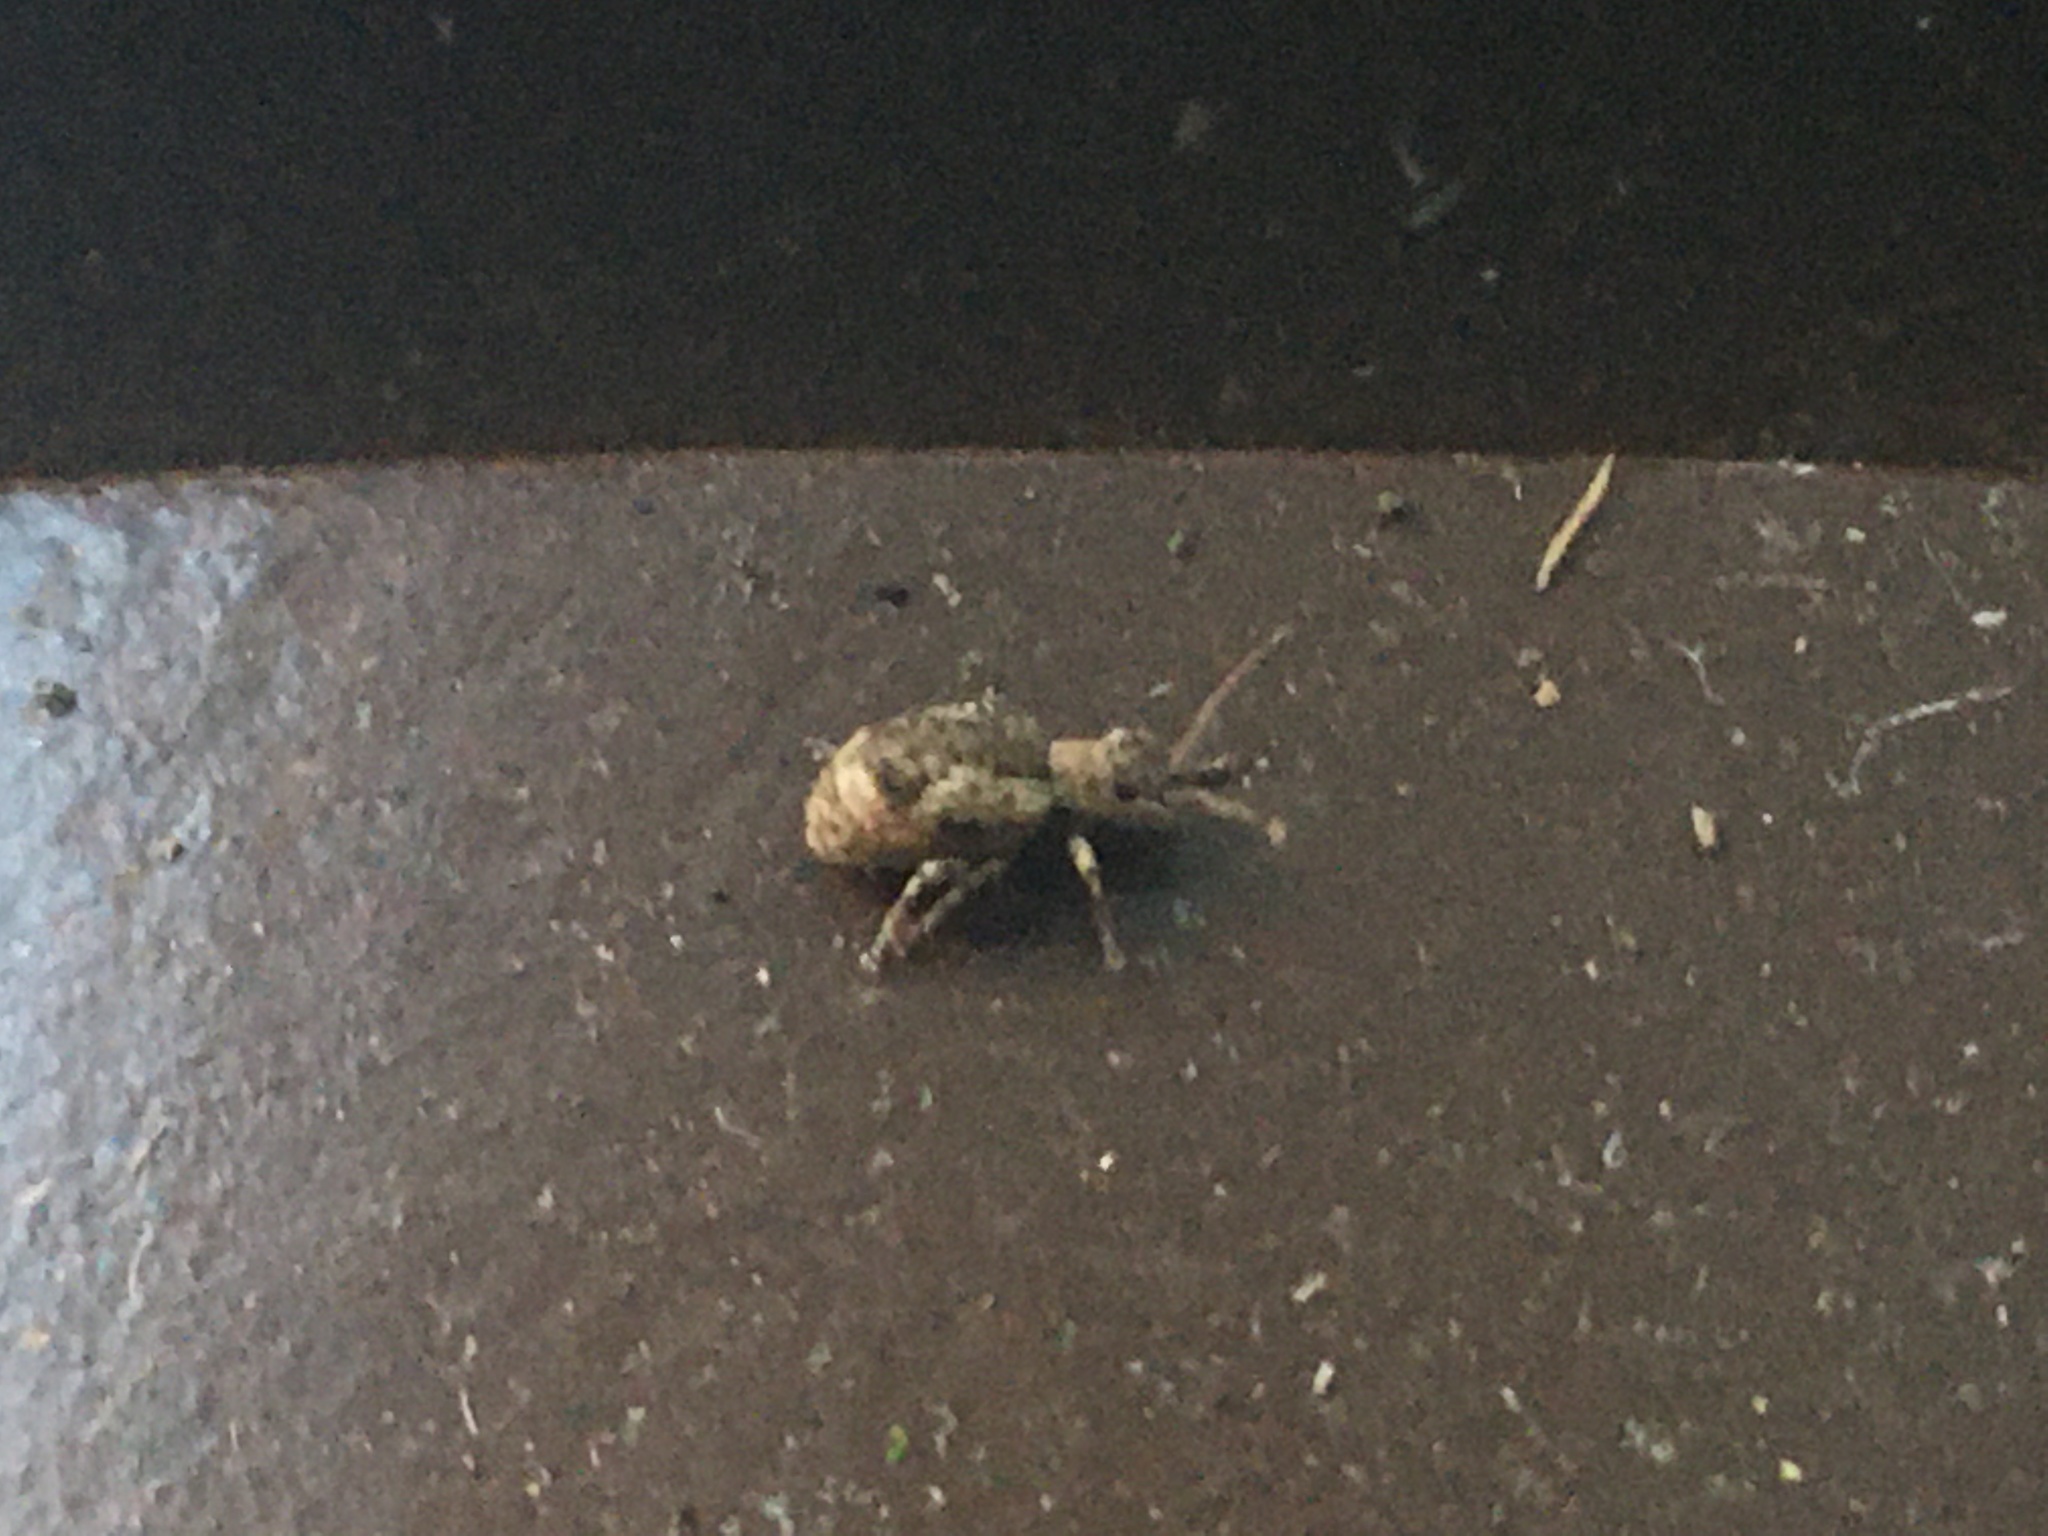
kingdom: Animalia
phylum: Arthropoda
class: Insecta
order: Coleoptera
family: Curculionidae
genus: Pseudoedophrys
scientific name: Pseudoedophrys hilleri
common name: Weevil
